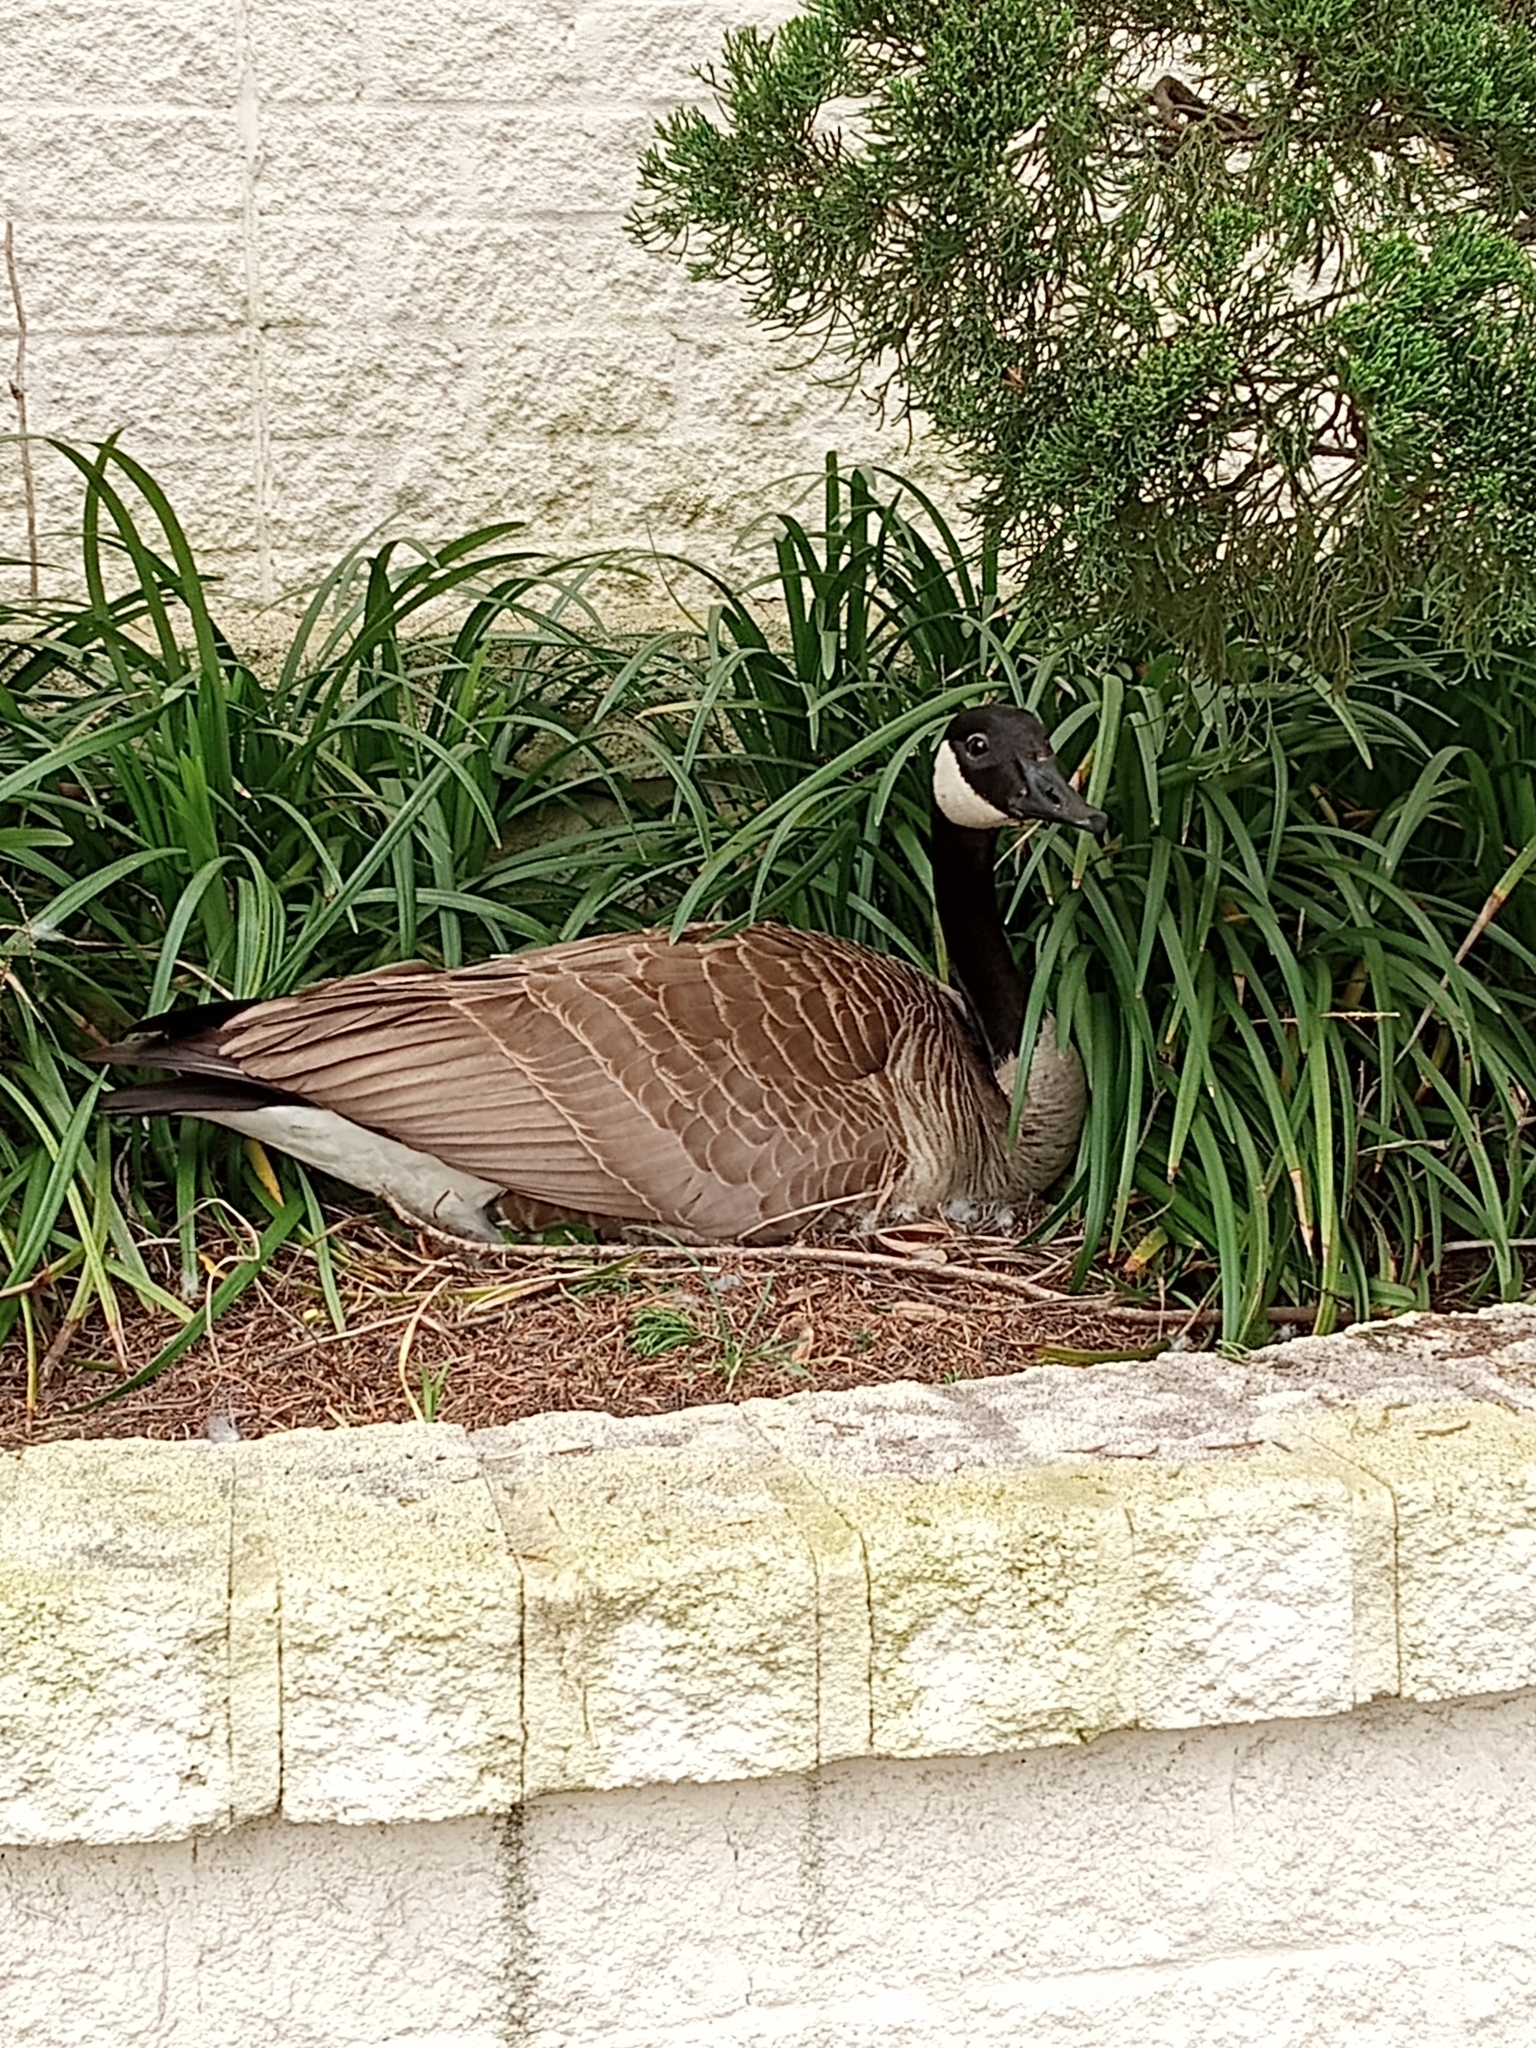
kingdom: Animalia
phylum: Chordata
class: Aves
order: Anseriformes
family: Anatidae
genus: Branta
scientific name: Branta canadensis
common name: Canada goose
